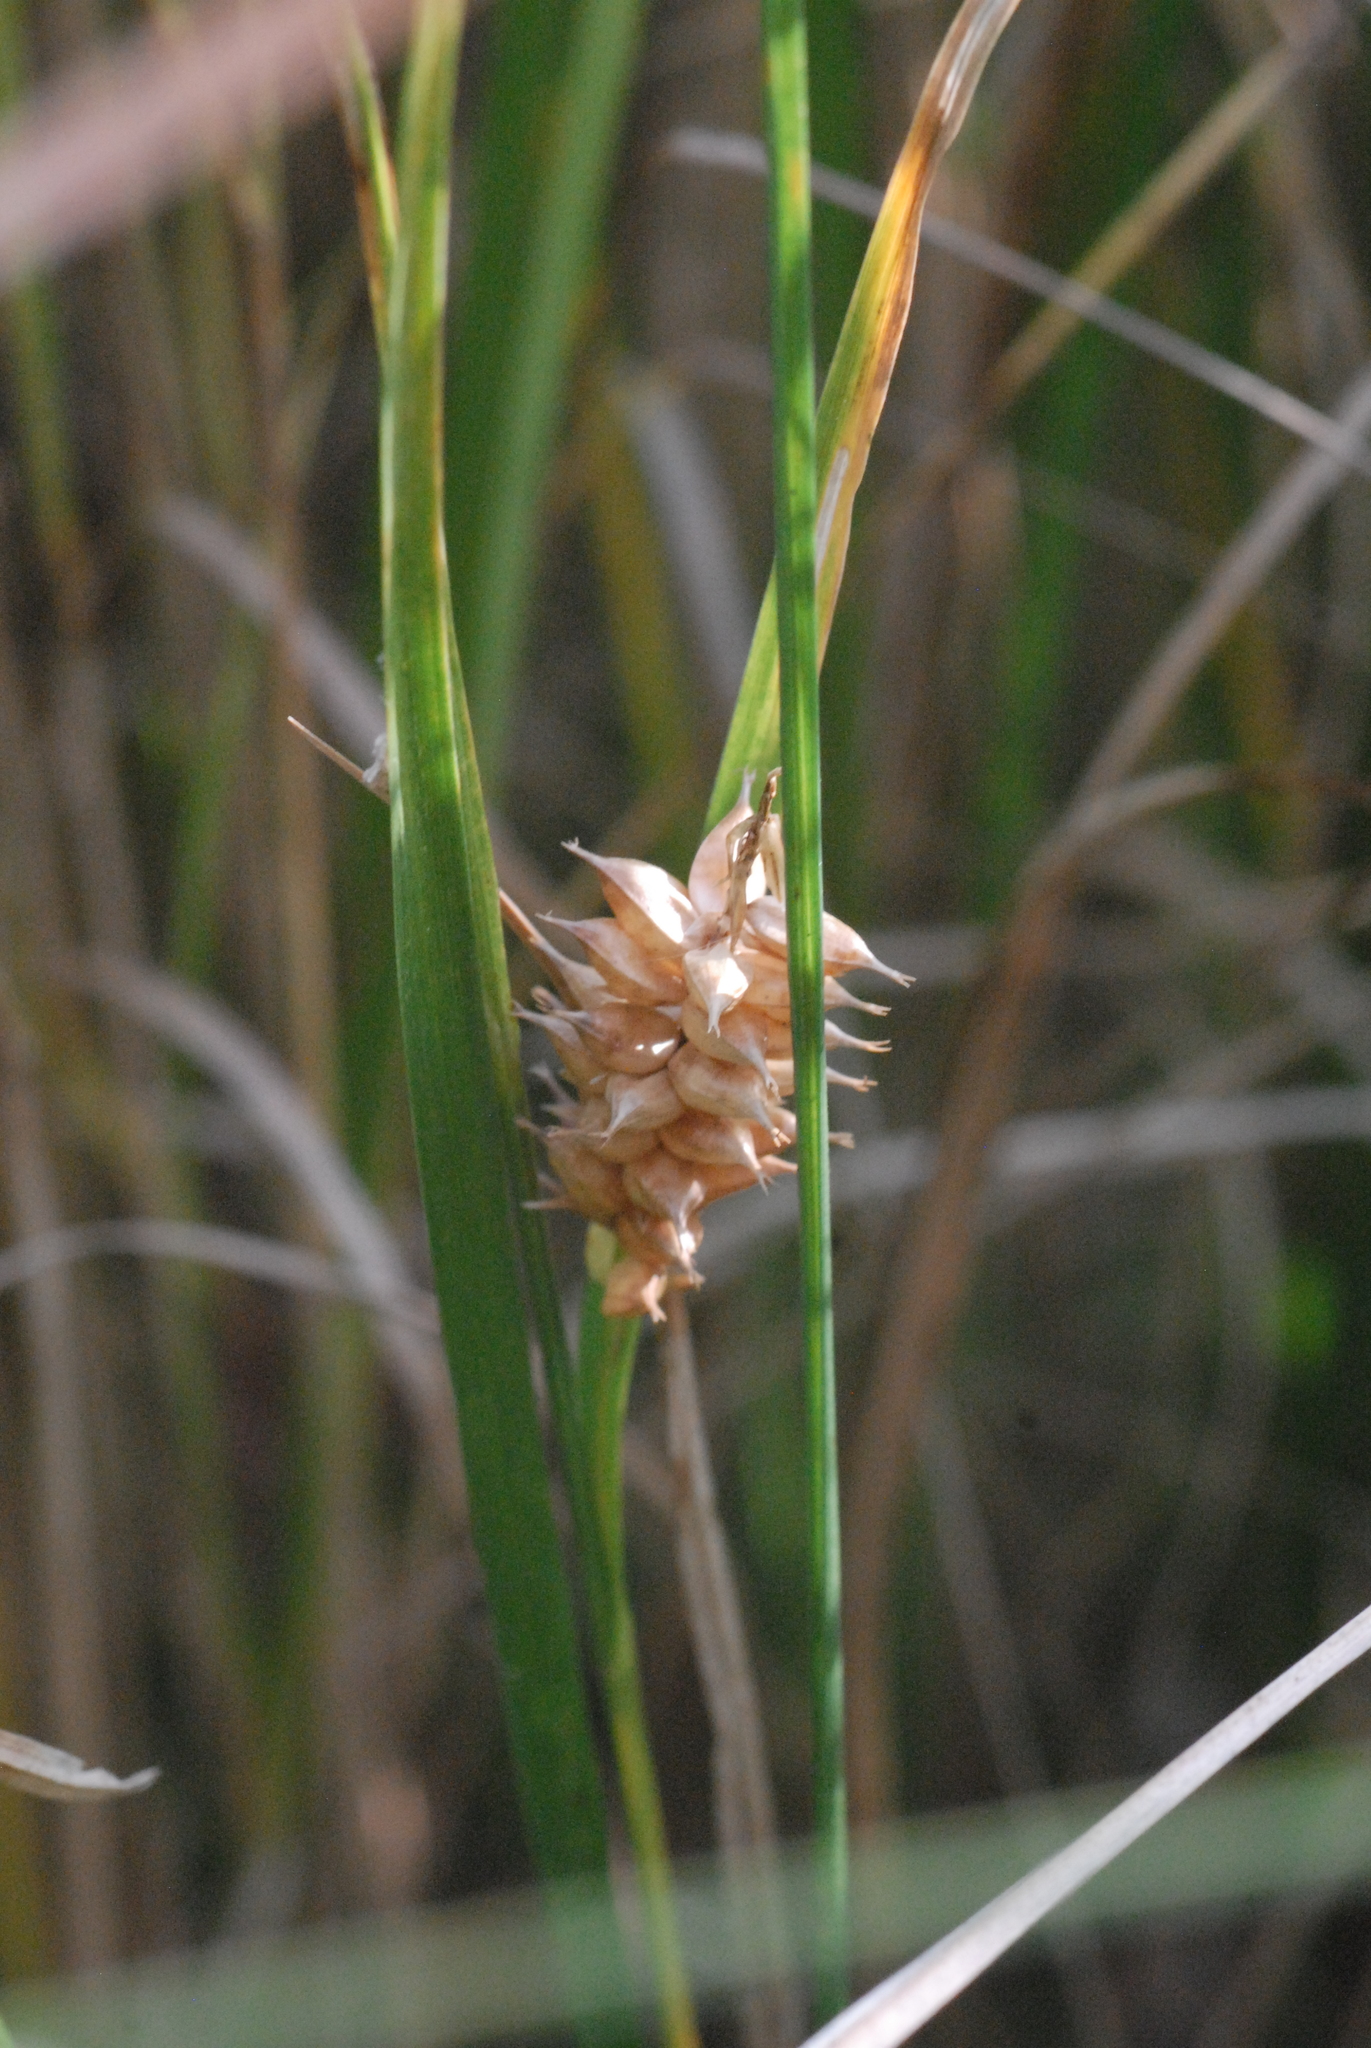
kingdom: Plantae
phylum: Tracheophyta
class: Liliopsida
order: Poales
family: Cyperaceae
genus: Carex
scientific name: Carex rostrata
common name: Bottle sedge
